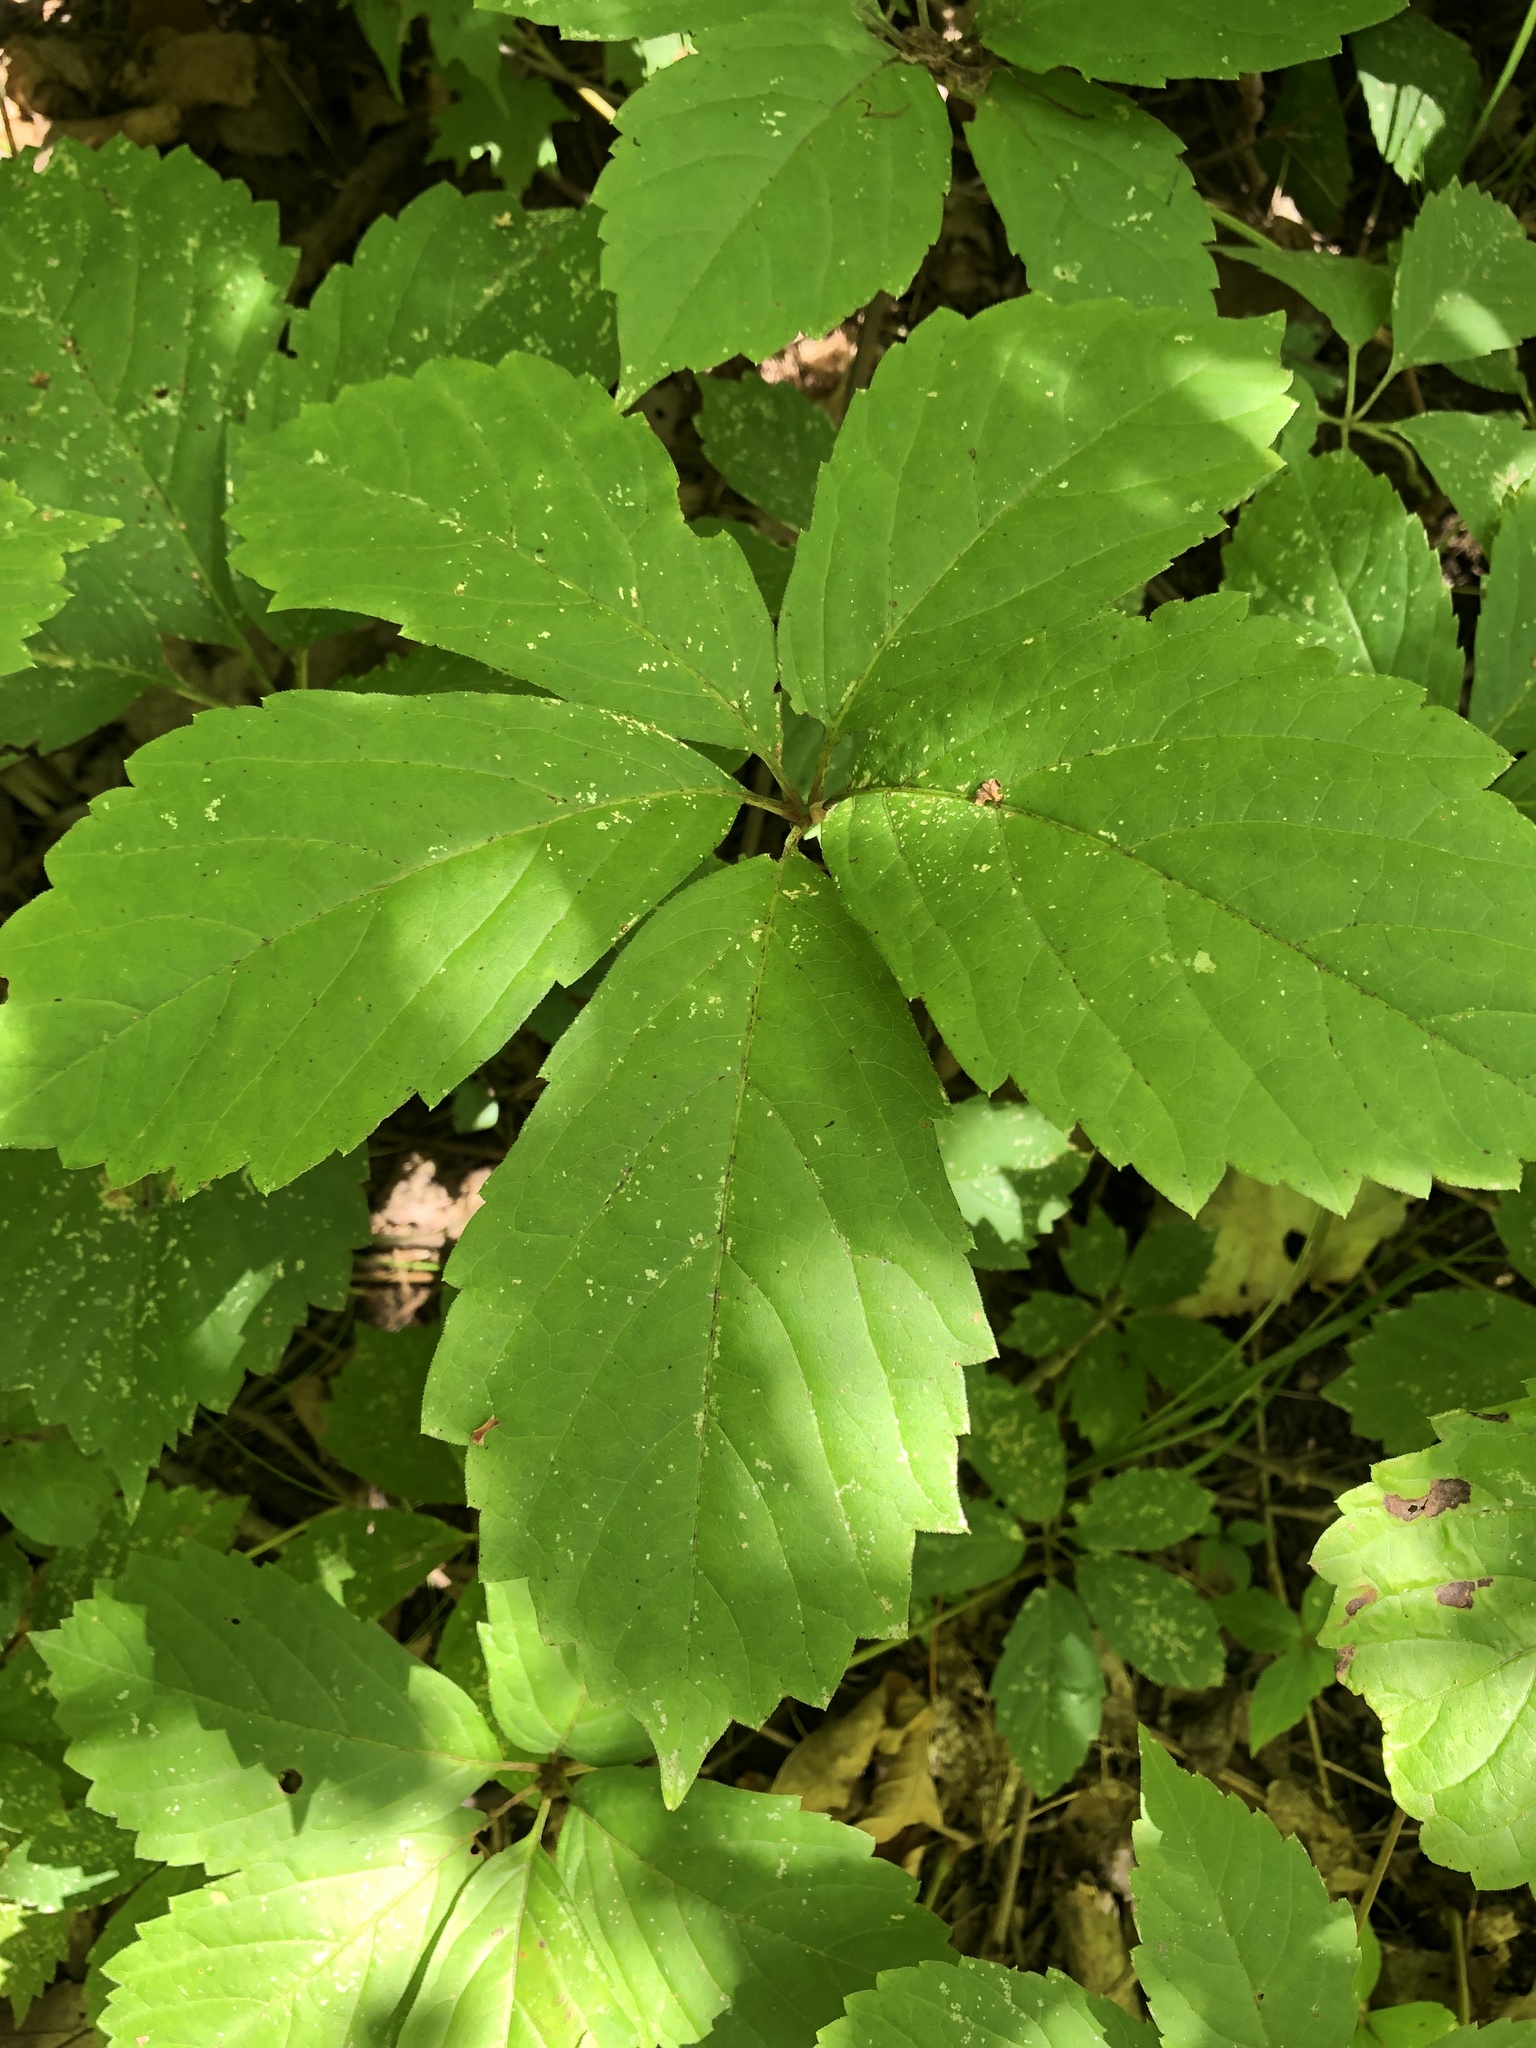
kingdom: Plantae
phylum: Tracheophyta
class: Magnoliopsida
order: Vitales
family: Vitaceae
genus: Parthenocissus
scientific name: Parthenocissus inserta
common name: False virginia-creeper
